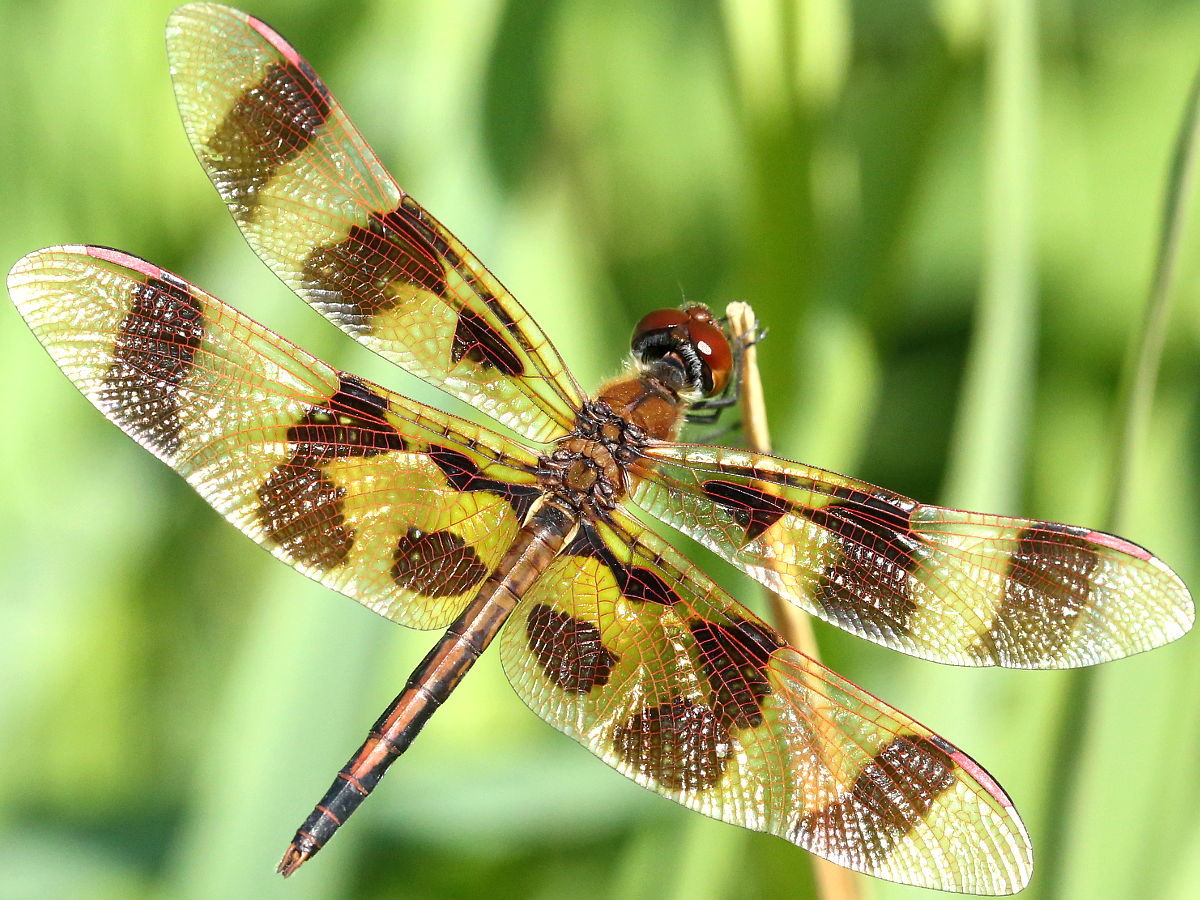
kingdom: Animalia
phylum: Arthropoda
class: Insecta
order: Odonata
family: Libellulidae
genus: Celithemis
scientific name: Celithemis eponina
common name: Halloween pennant
